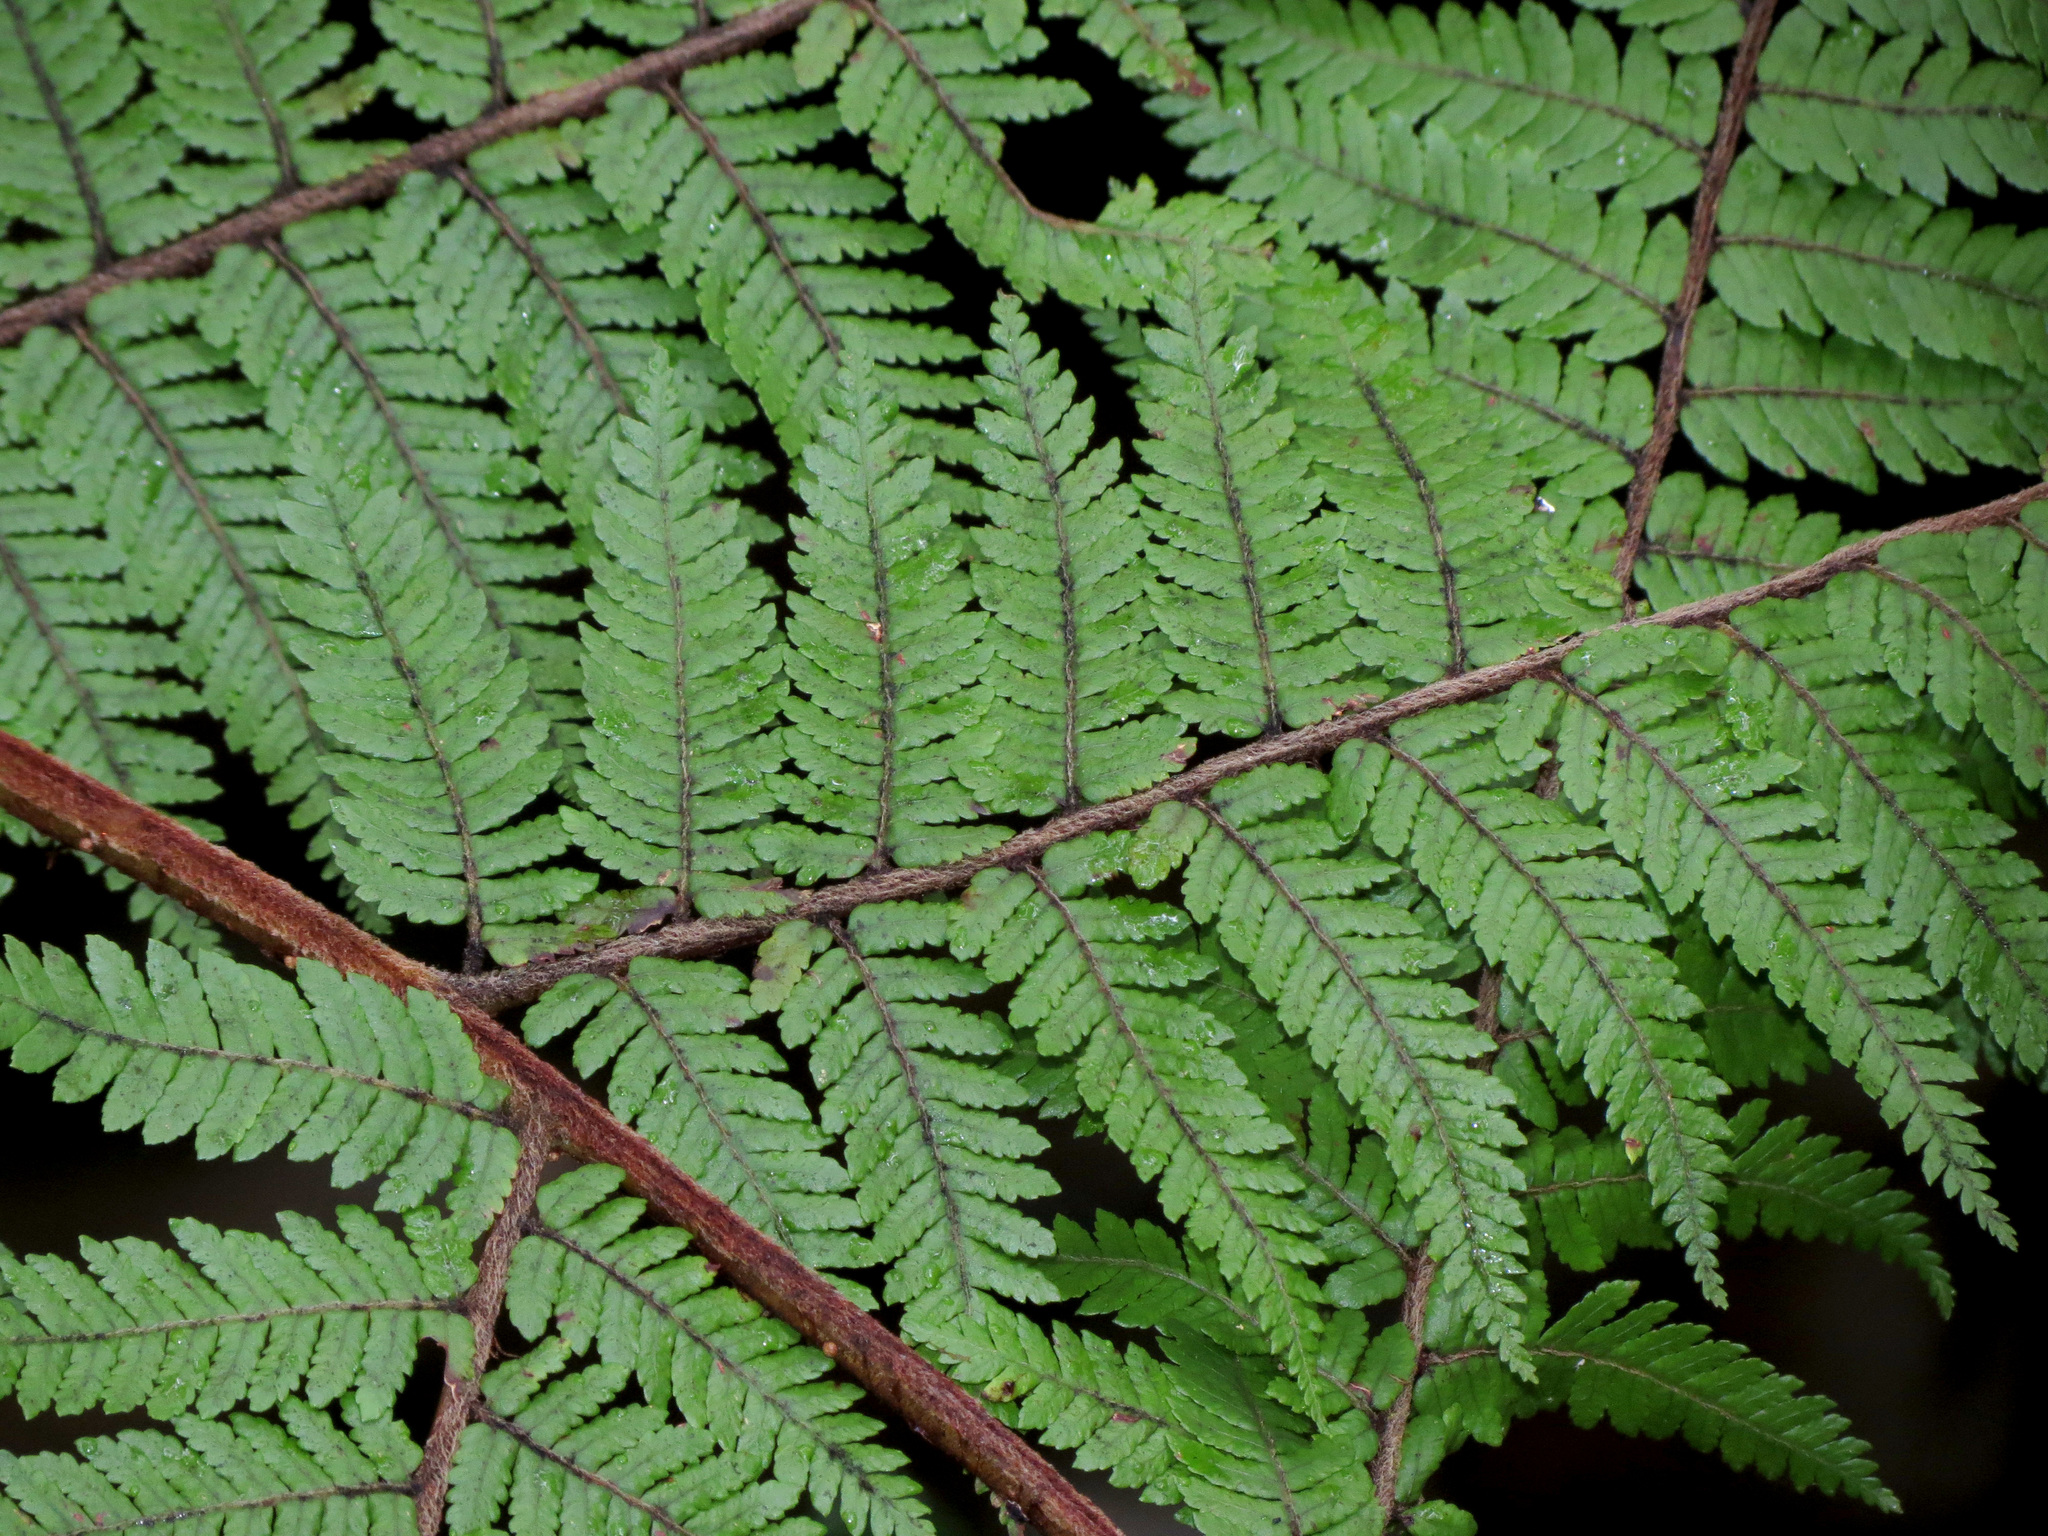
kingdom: Plantae
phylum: Tracheophyta
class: Polypodiopsida
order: Cyatheales
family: Cyatheaceae
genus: Alsophila
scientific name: Alsophila colensoi
